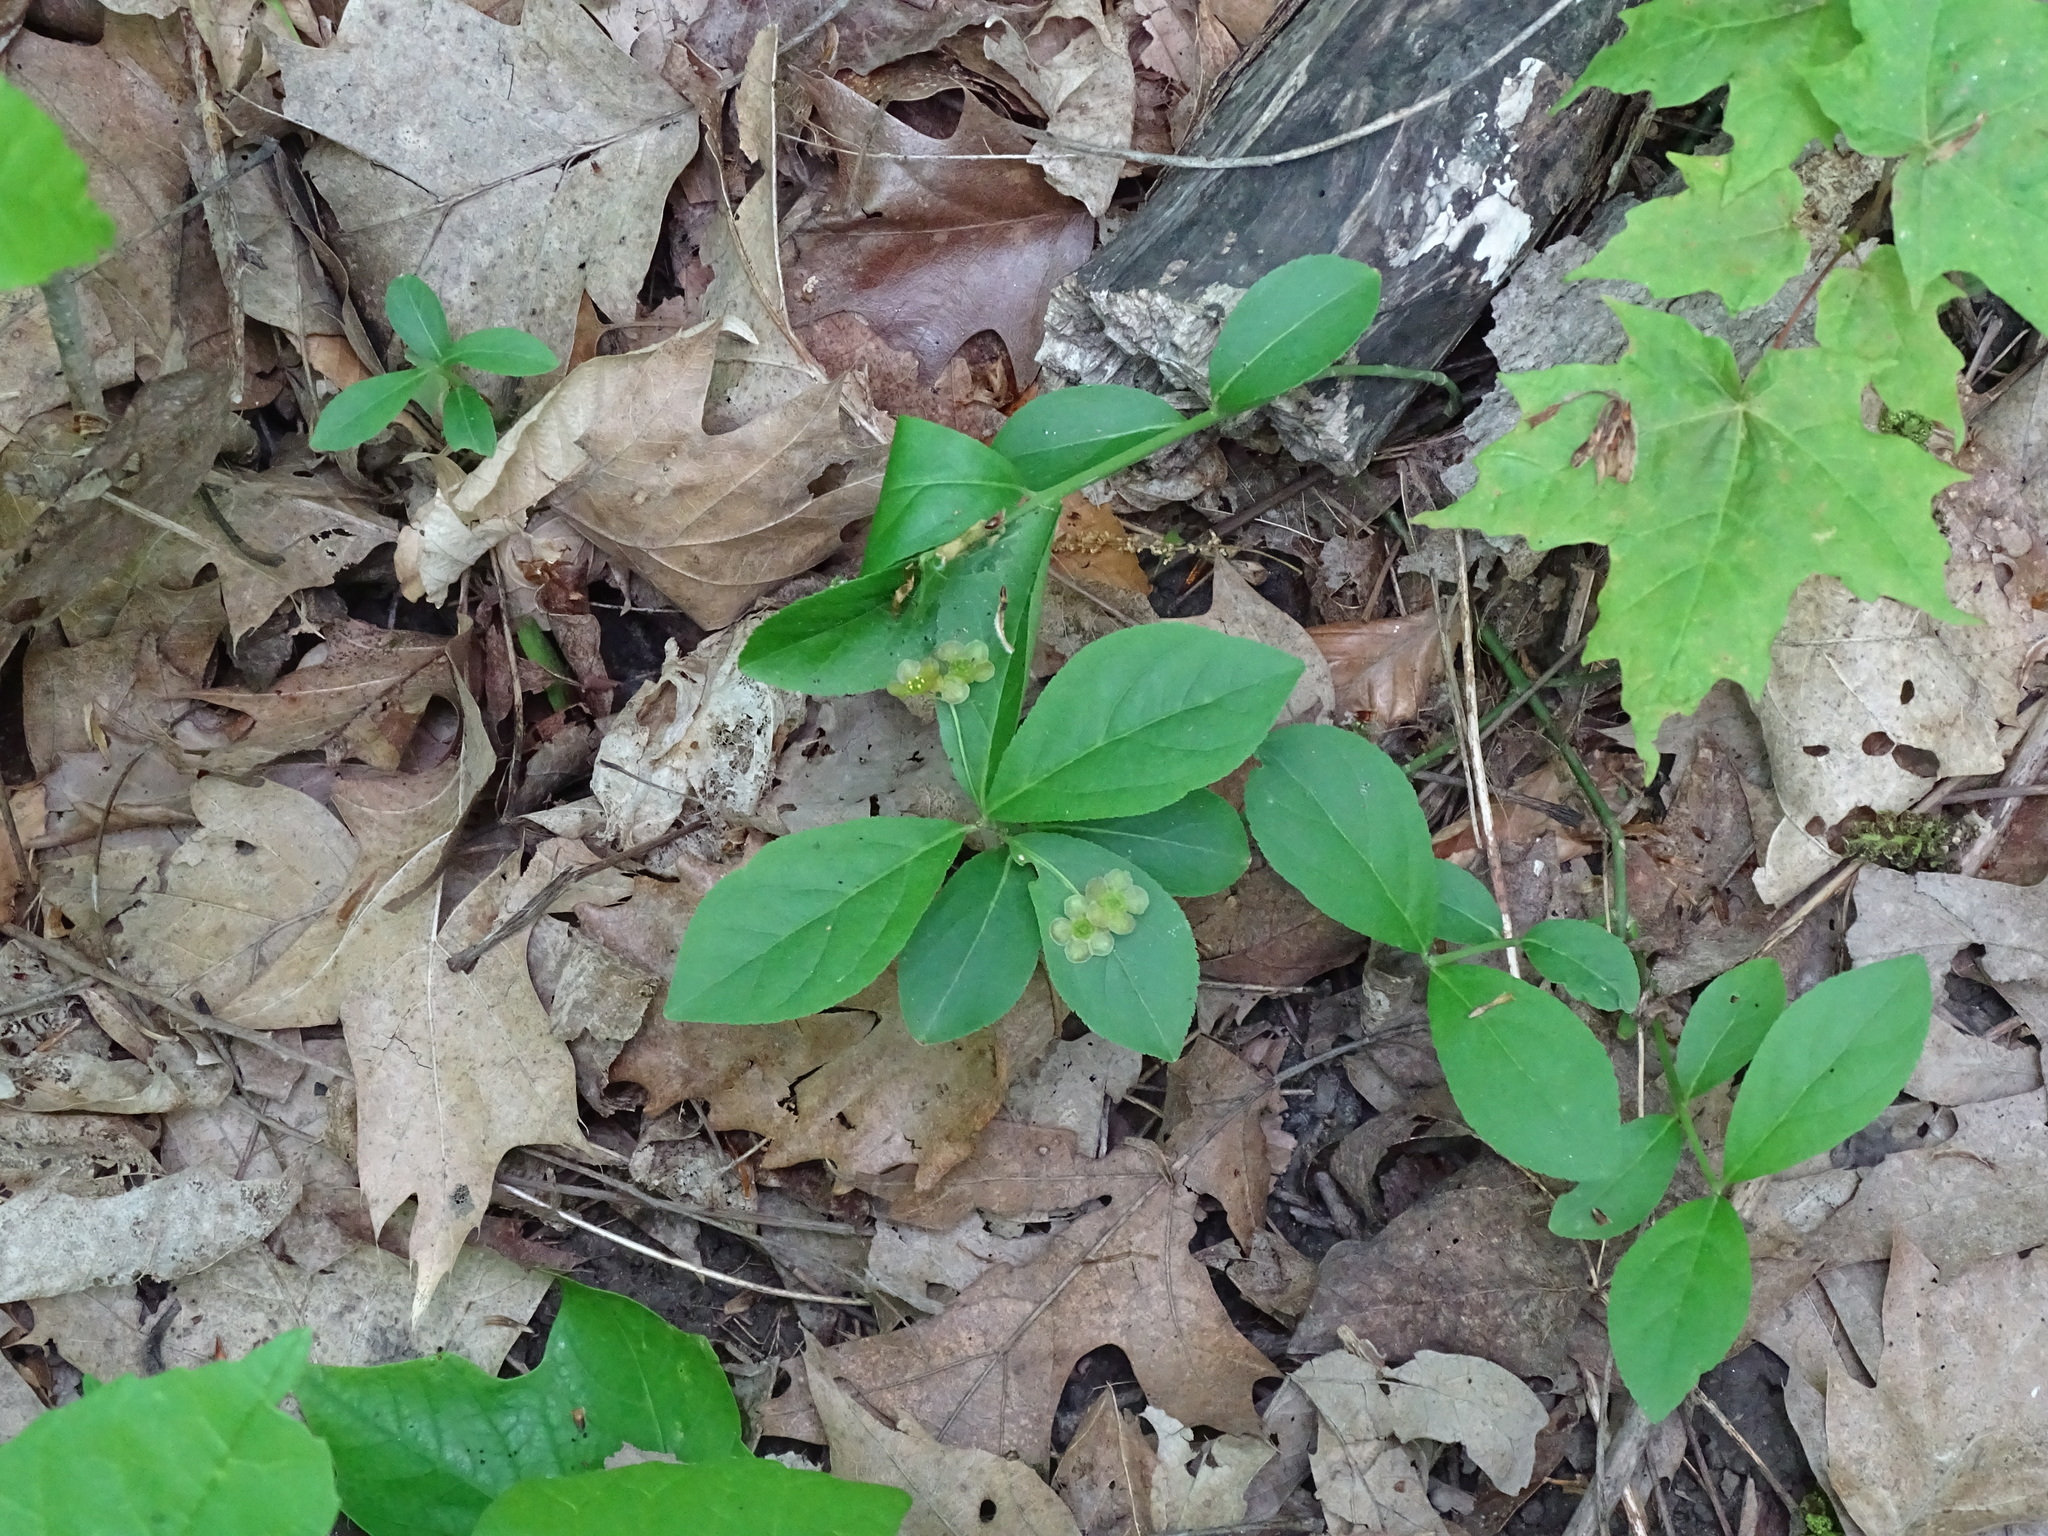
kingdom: Plantae
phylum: Tracheophyta
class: Magnoliopsida
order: Celastrales
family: Celastraceae
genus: Euonymus
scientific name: Euonymus obovatus
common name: Running strawberry-bush
